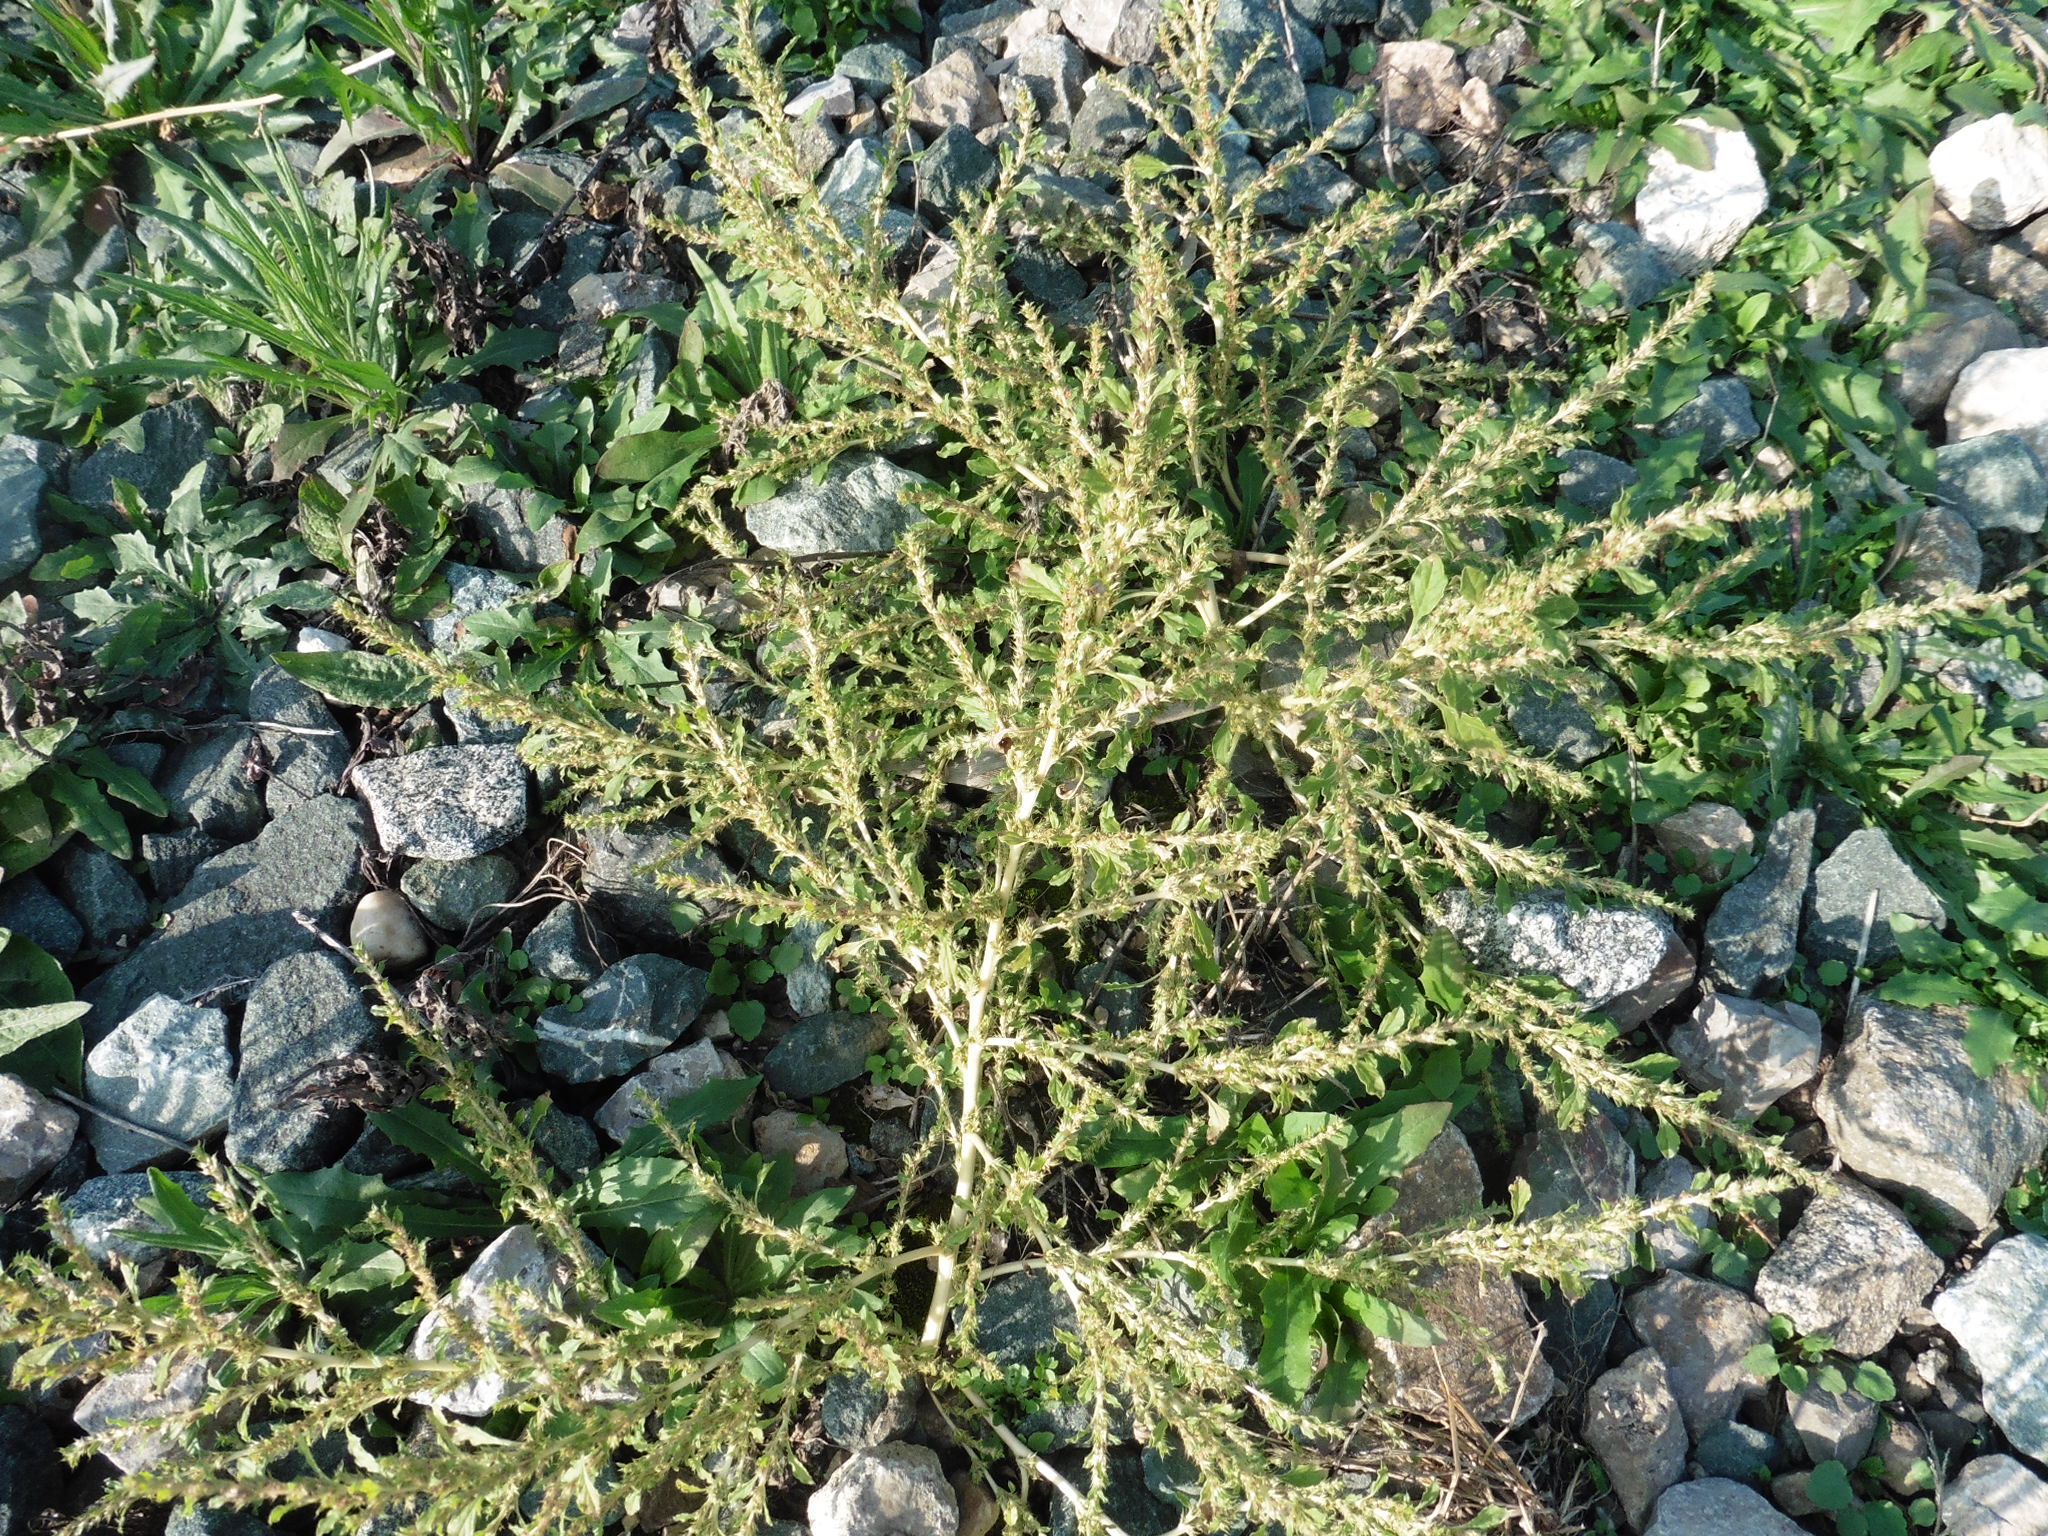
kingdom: Plantae
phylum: Tracheophyta
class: Magnoliopsida
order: Caryophyllales
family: Amaranthaceae
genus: Amaranthus
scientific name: Amaranthus albus
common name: White pigweed
